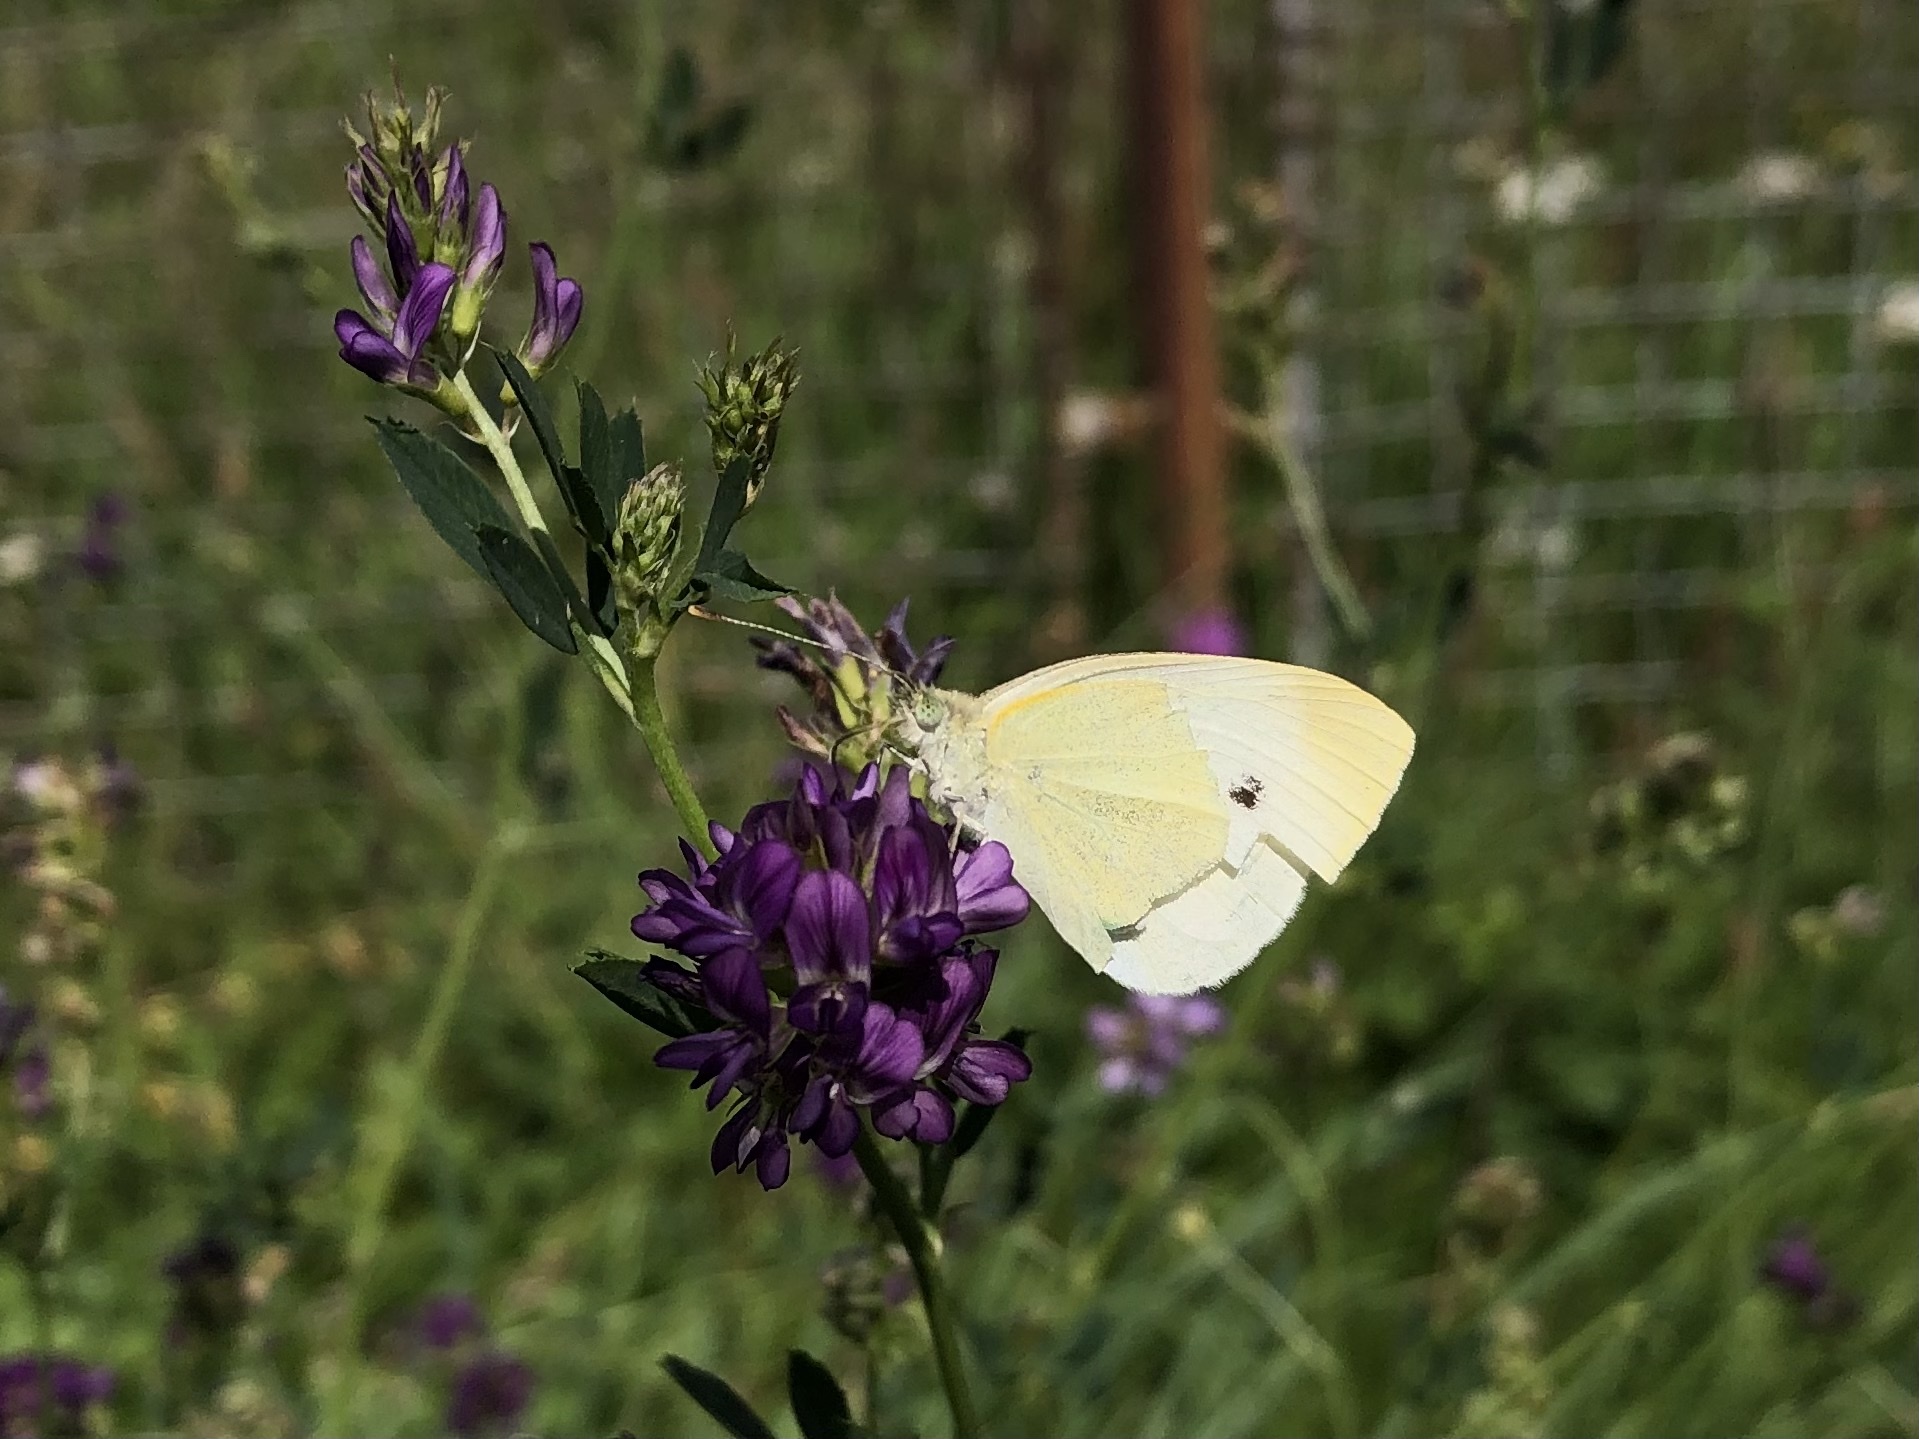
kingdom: Animalia
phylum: Arthropoda
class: Insecta
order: Lepidoptera
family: Pieridae
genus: Pieris
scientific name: Pieris rapae
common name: Small white
